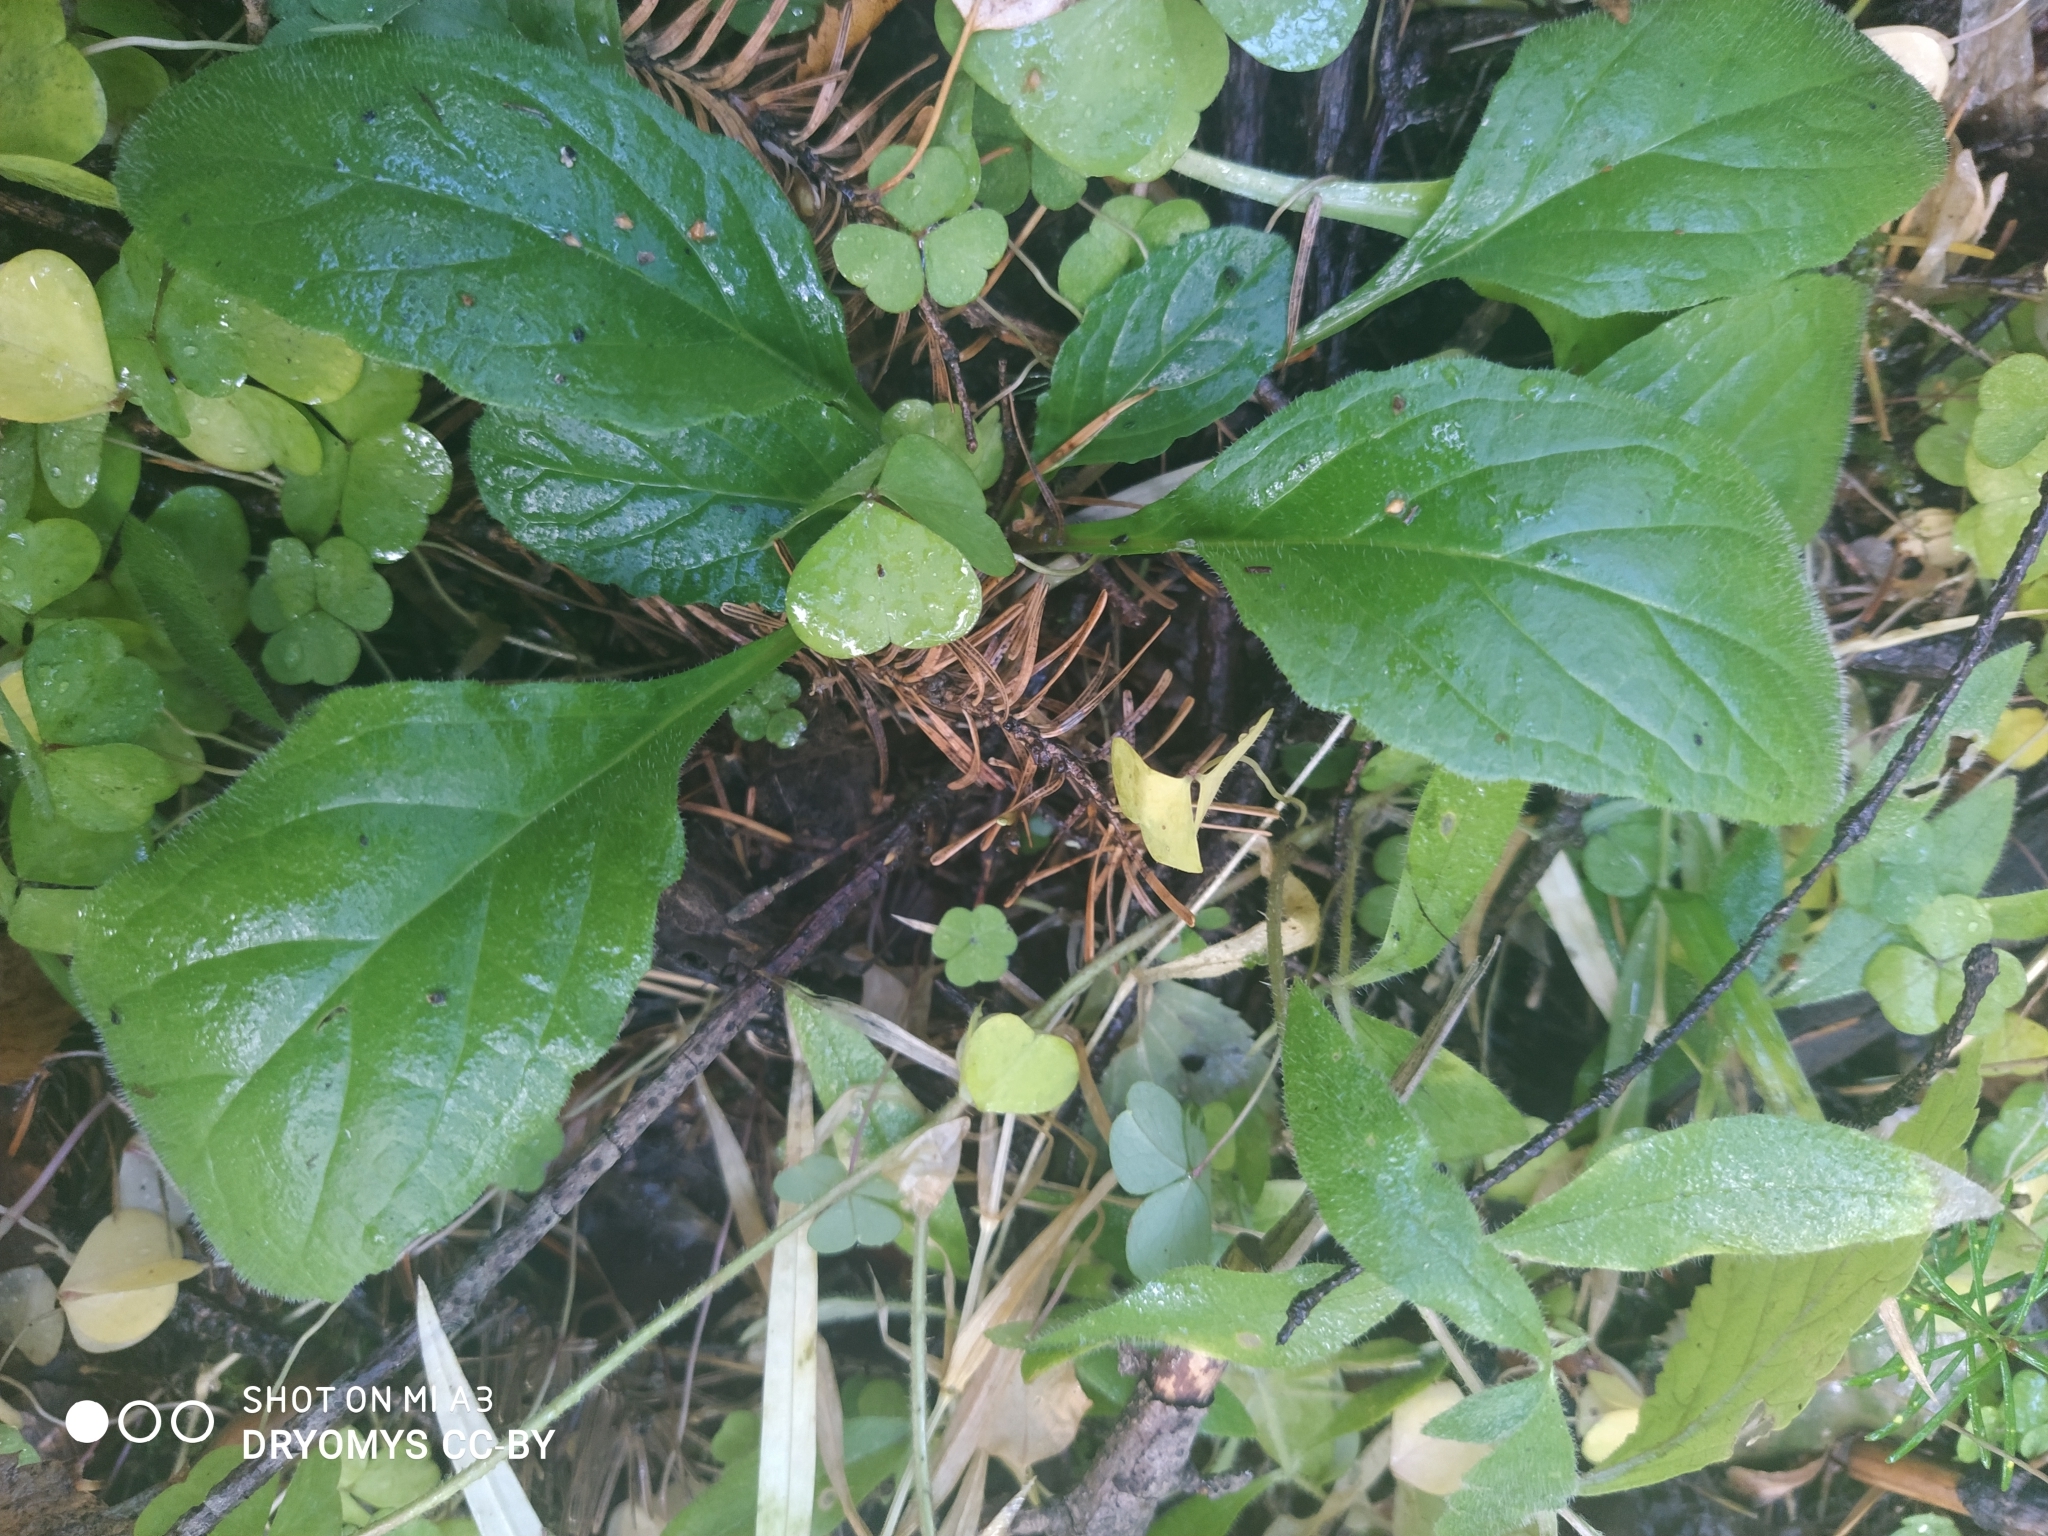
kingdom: Plantae
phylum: Tracheophyta
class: Magnoliopsida
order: Lamiales
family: Lamiaceae
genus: Ajuga
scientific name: Ajuga reptans
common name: Bugle
